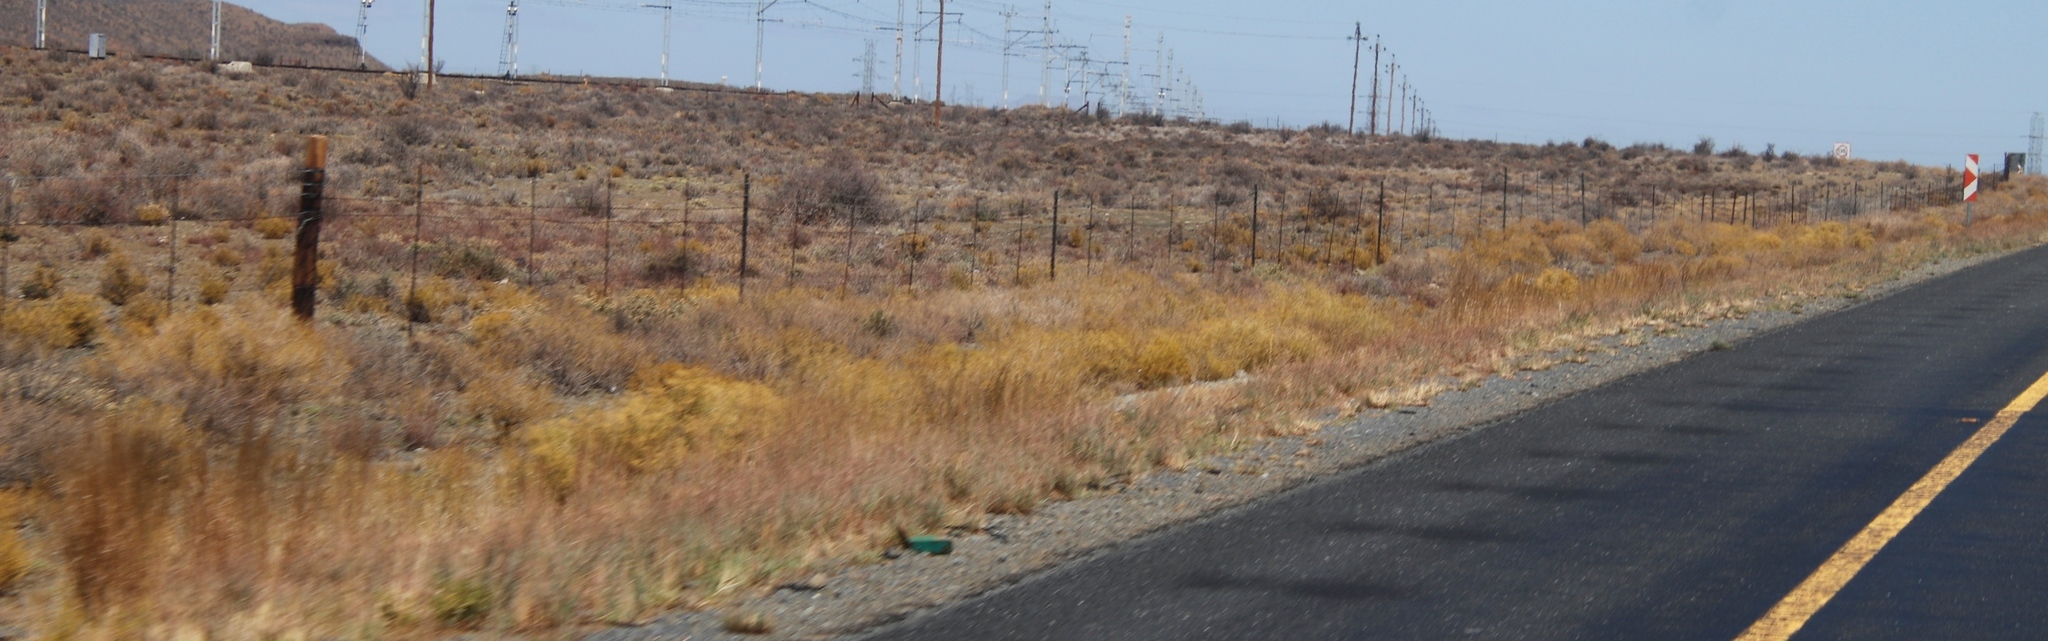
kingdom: Plantae
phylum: Tracheophyta
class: Magnoliopsida
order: Caryophyllales
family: Aizoaceae
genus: Aizoon
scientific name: Aizoon africanum
